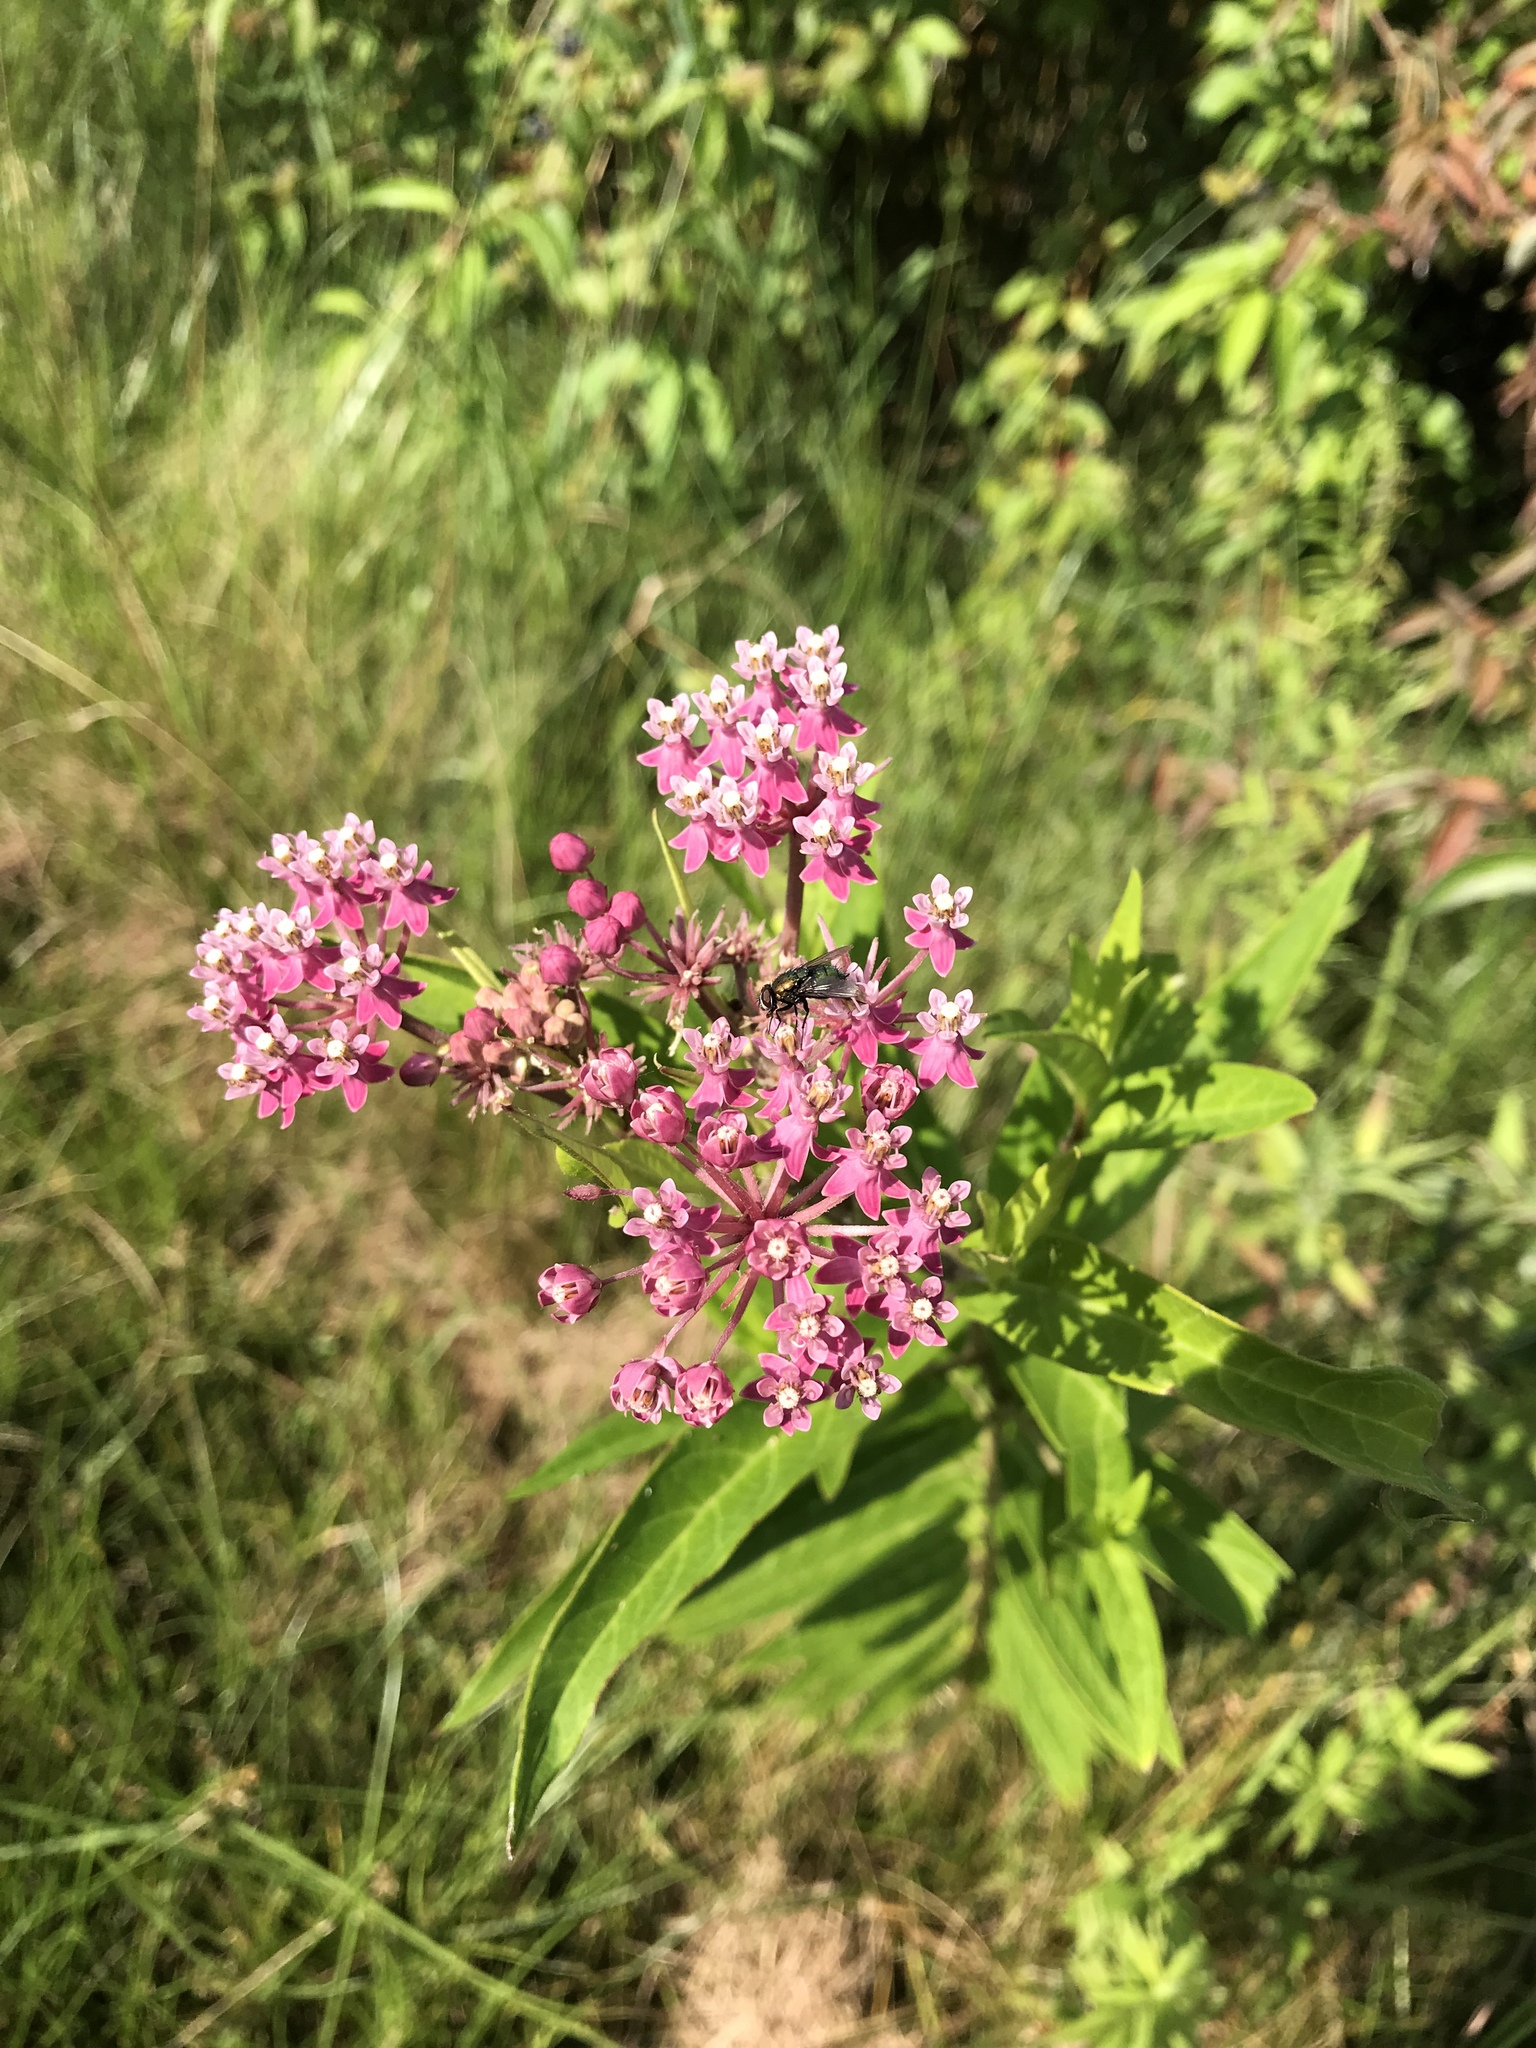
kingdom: Plantae
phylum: Tracheophyta
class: Magnoliopsida
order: Gentianales
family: Apocynaceae
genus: Asclepias
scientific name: Asclepias incarnata
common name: Swamp milkweed
